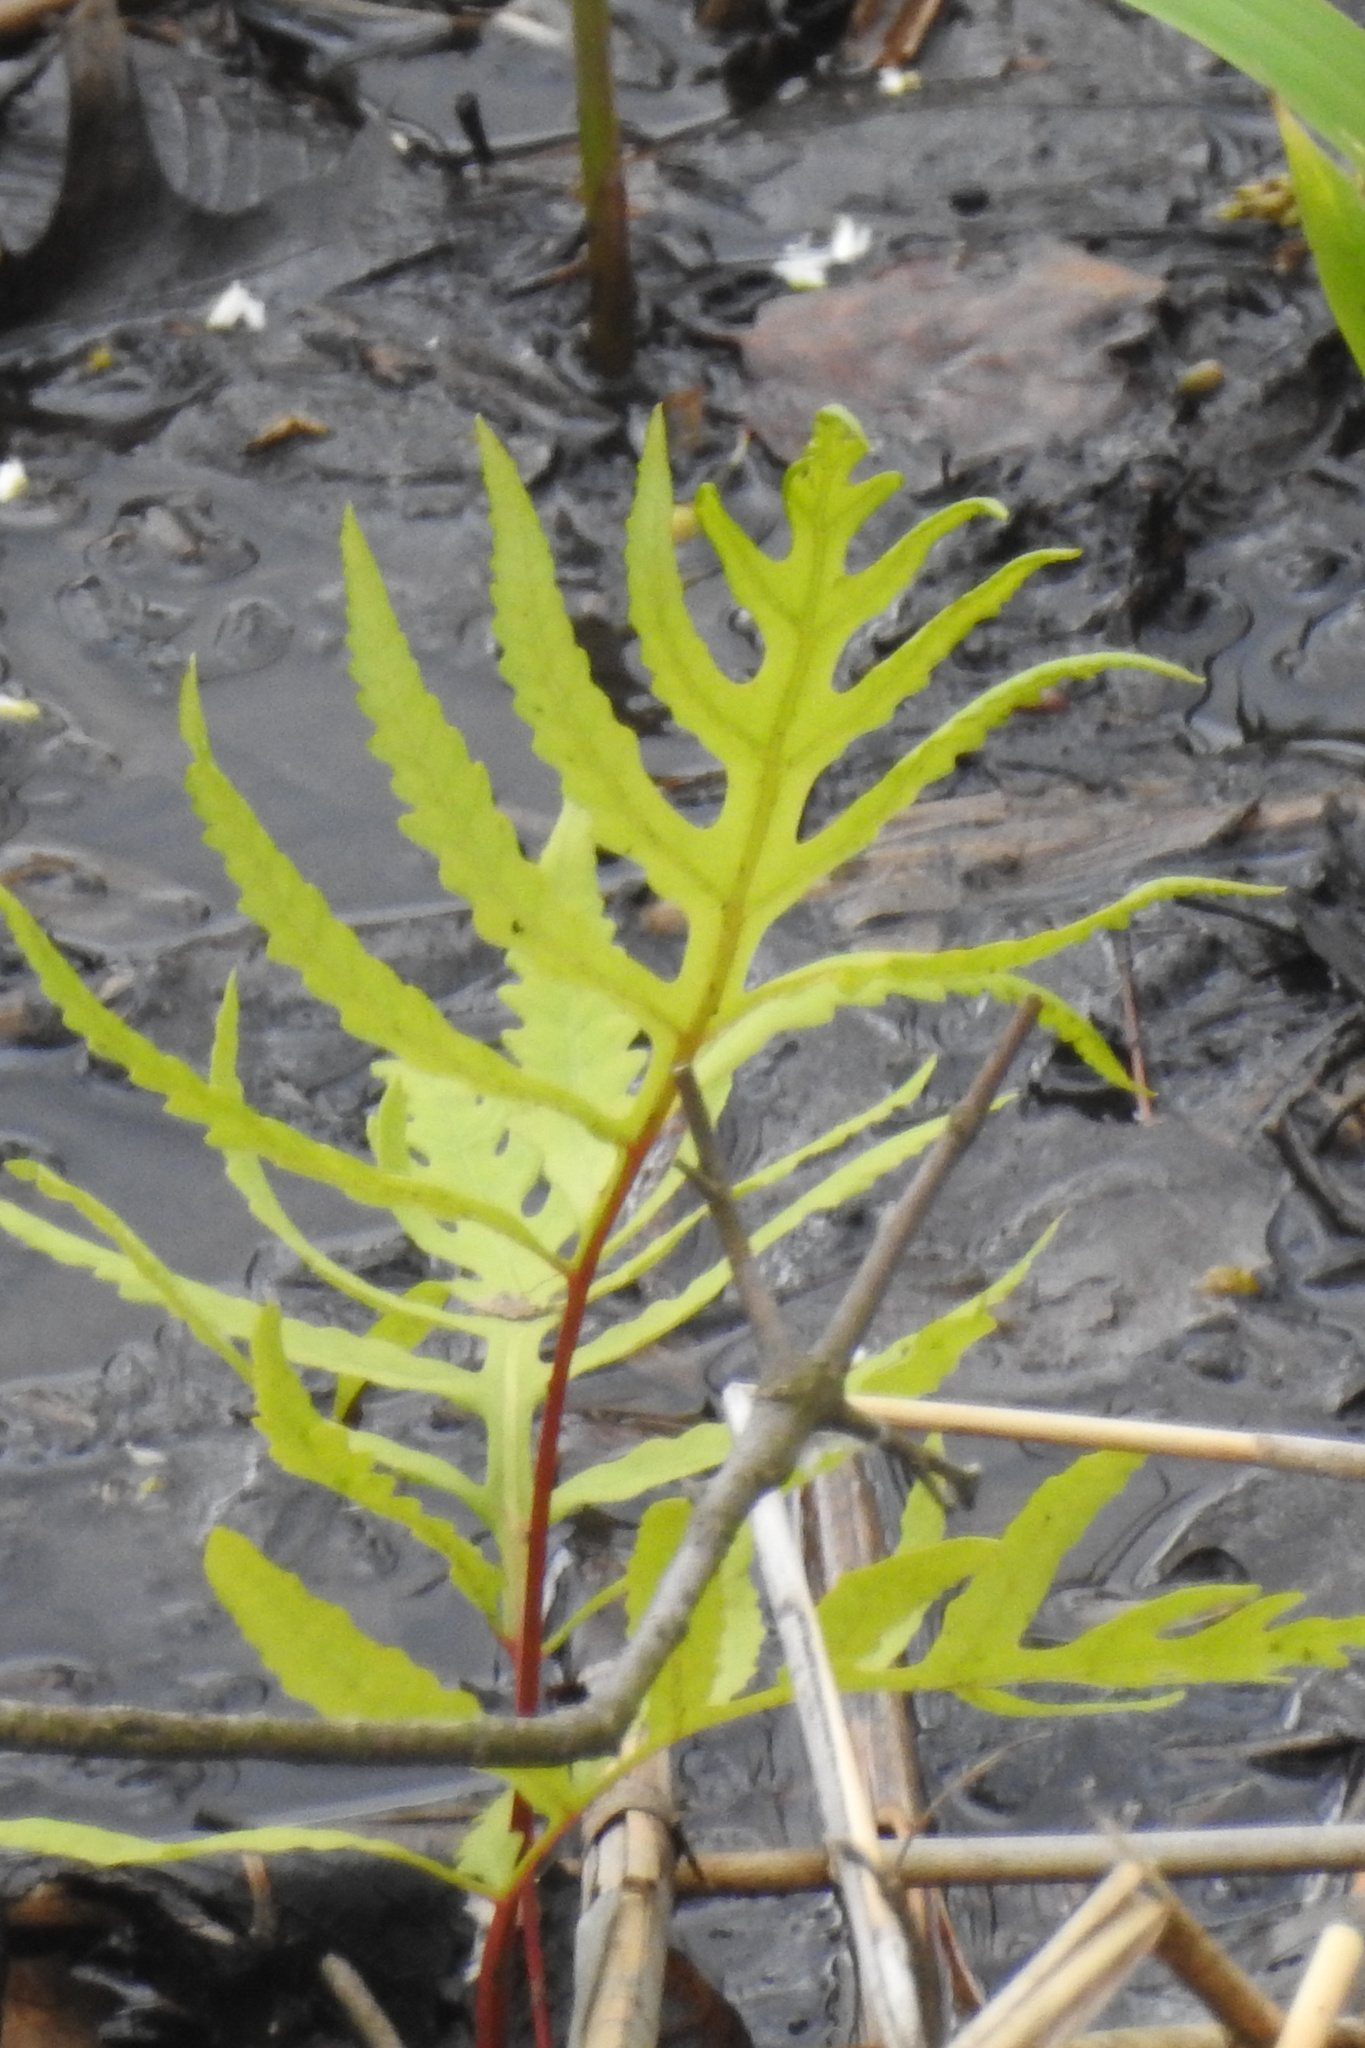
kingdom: Plantae
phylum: Tracheophyta
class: Polypodiopsida
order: Polypodiales
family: Onocleaceae
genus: Onoclea
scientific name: Onoclea sensibilis
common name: Sensitive fern
